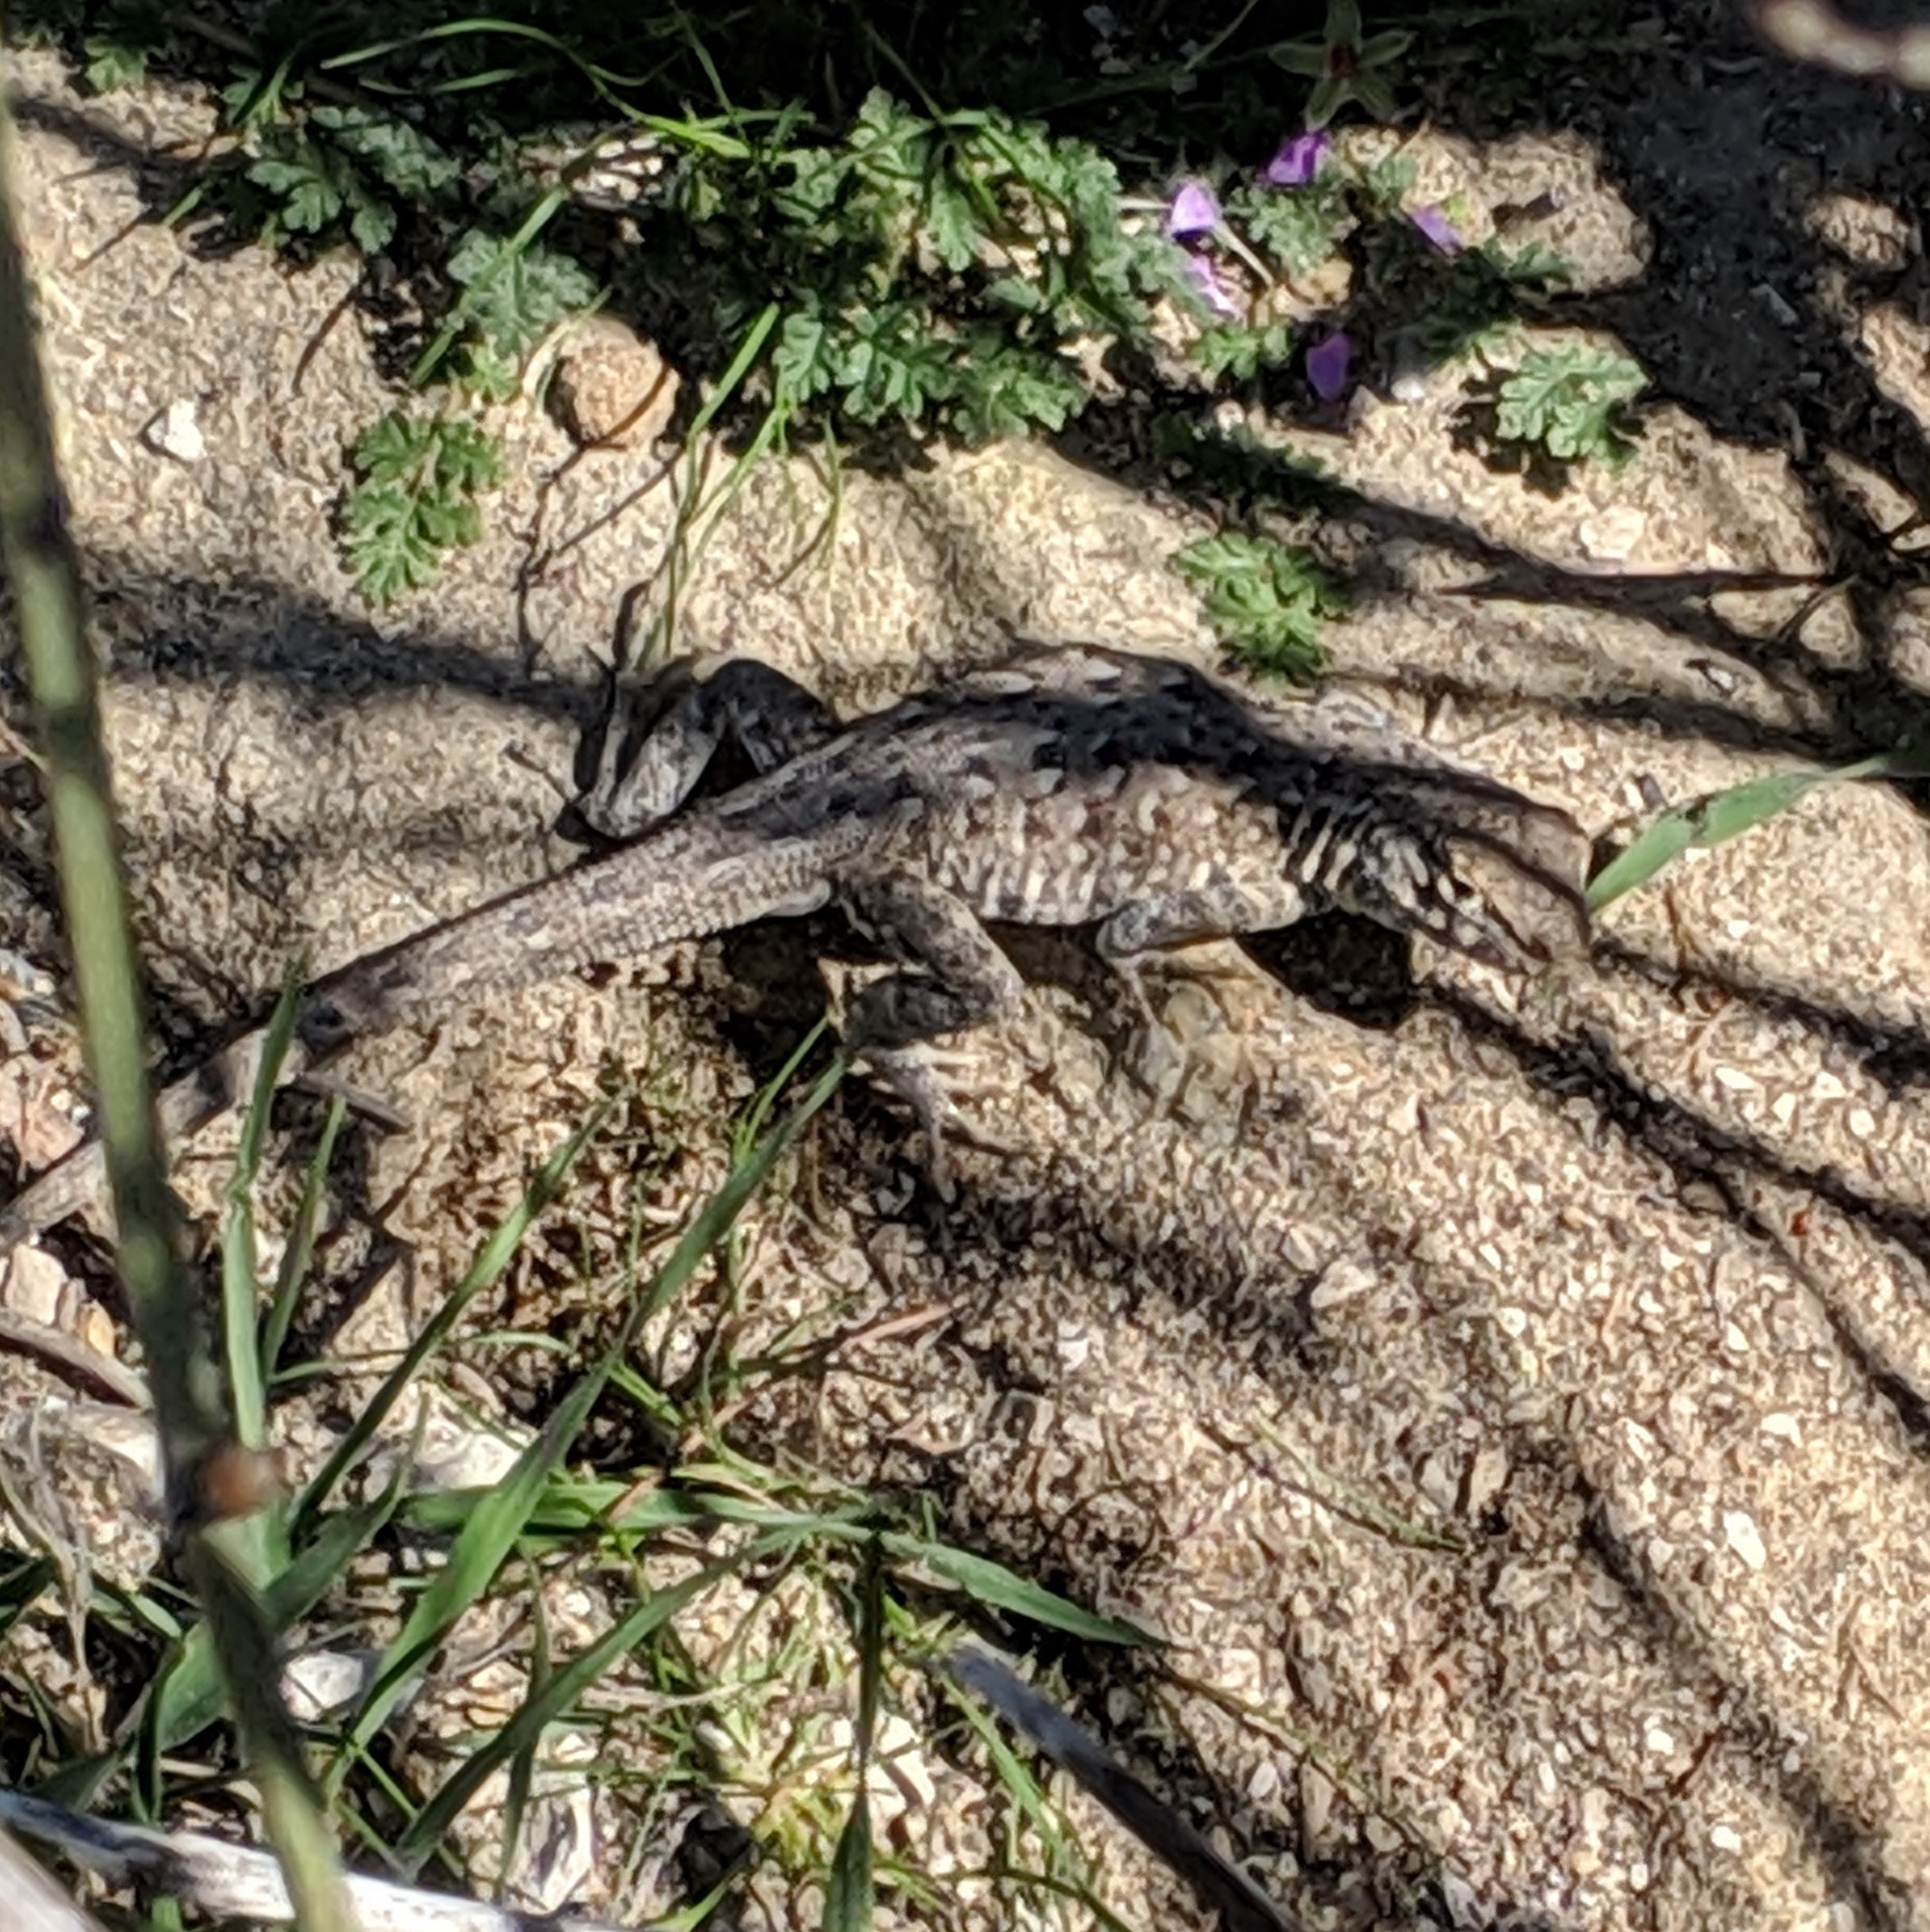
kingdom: Animalia
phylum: Chordata
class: Squamata
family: Phrynosomatidae
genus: Uta
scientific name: Uta stansburiana
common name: Side-blotched lizard
